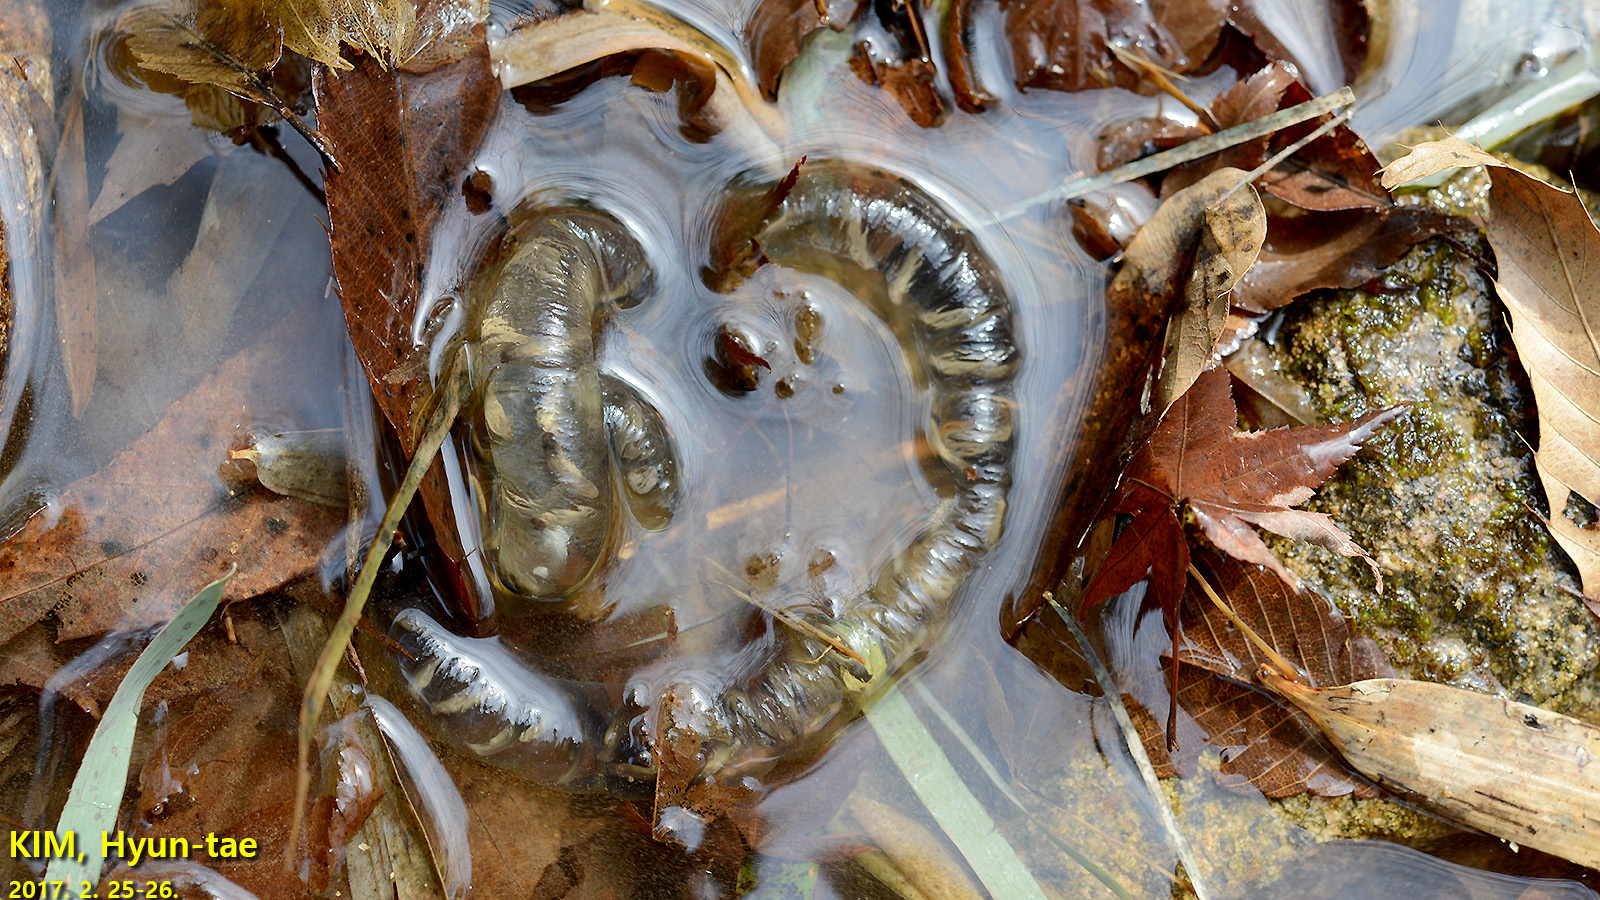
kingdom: Animalia
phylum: Chordata
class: Amphibia
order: Caudata
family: Hynobiidae
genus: Hynobius
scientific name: Hynobius quelpaertensis
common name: Cheju salamander
